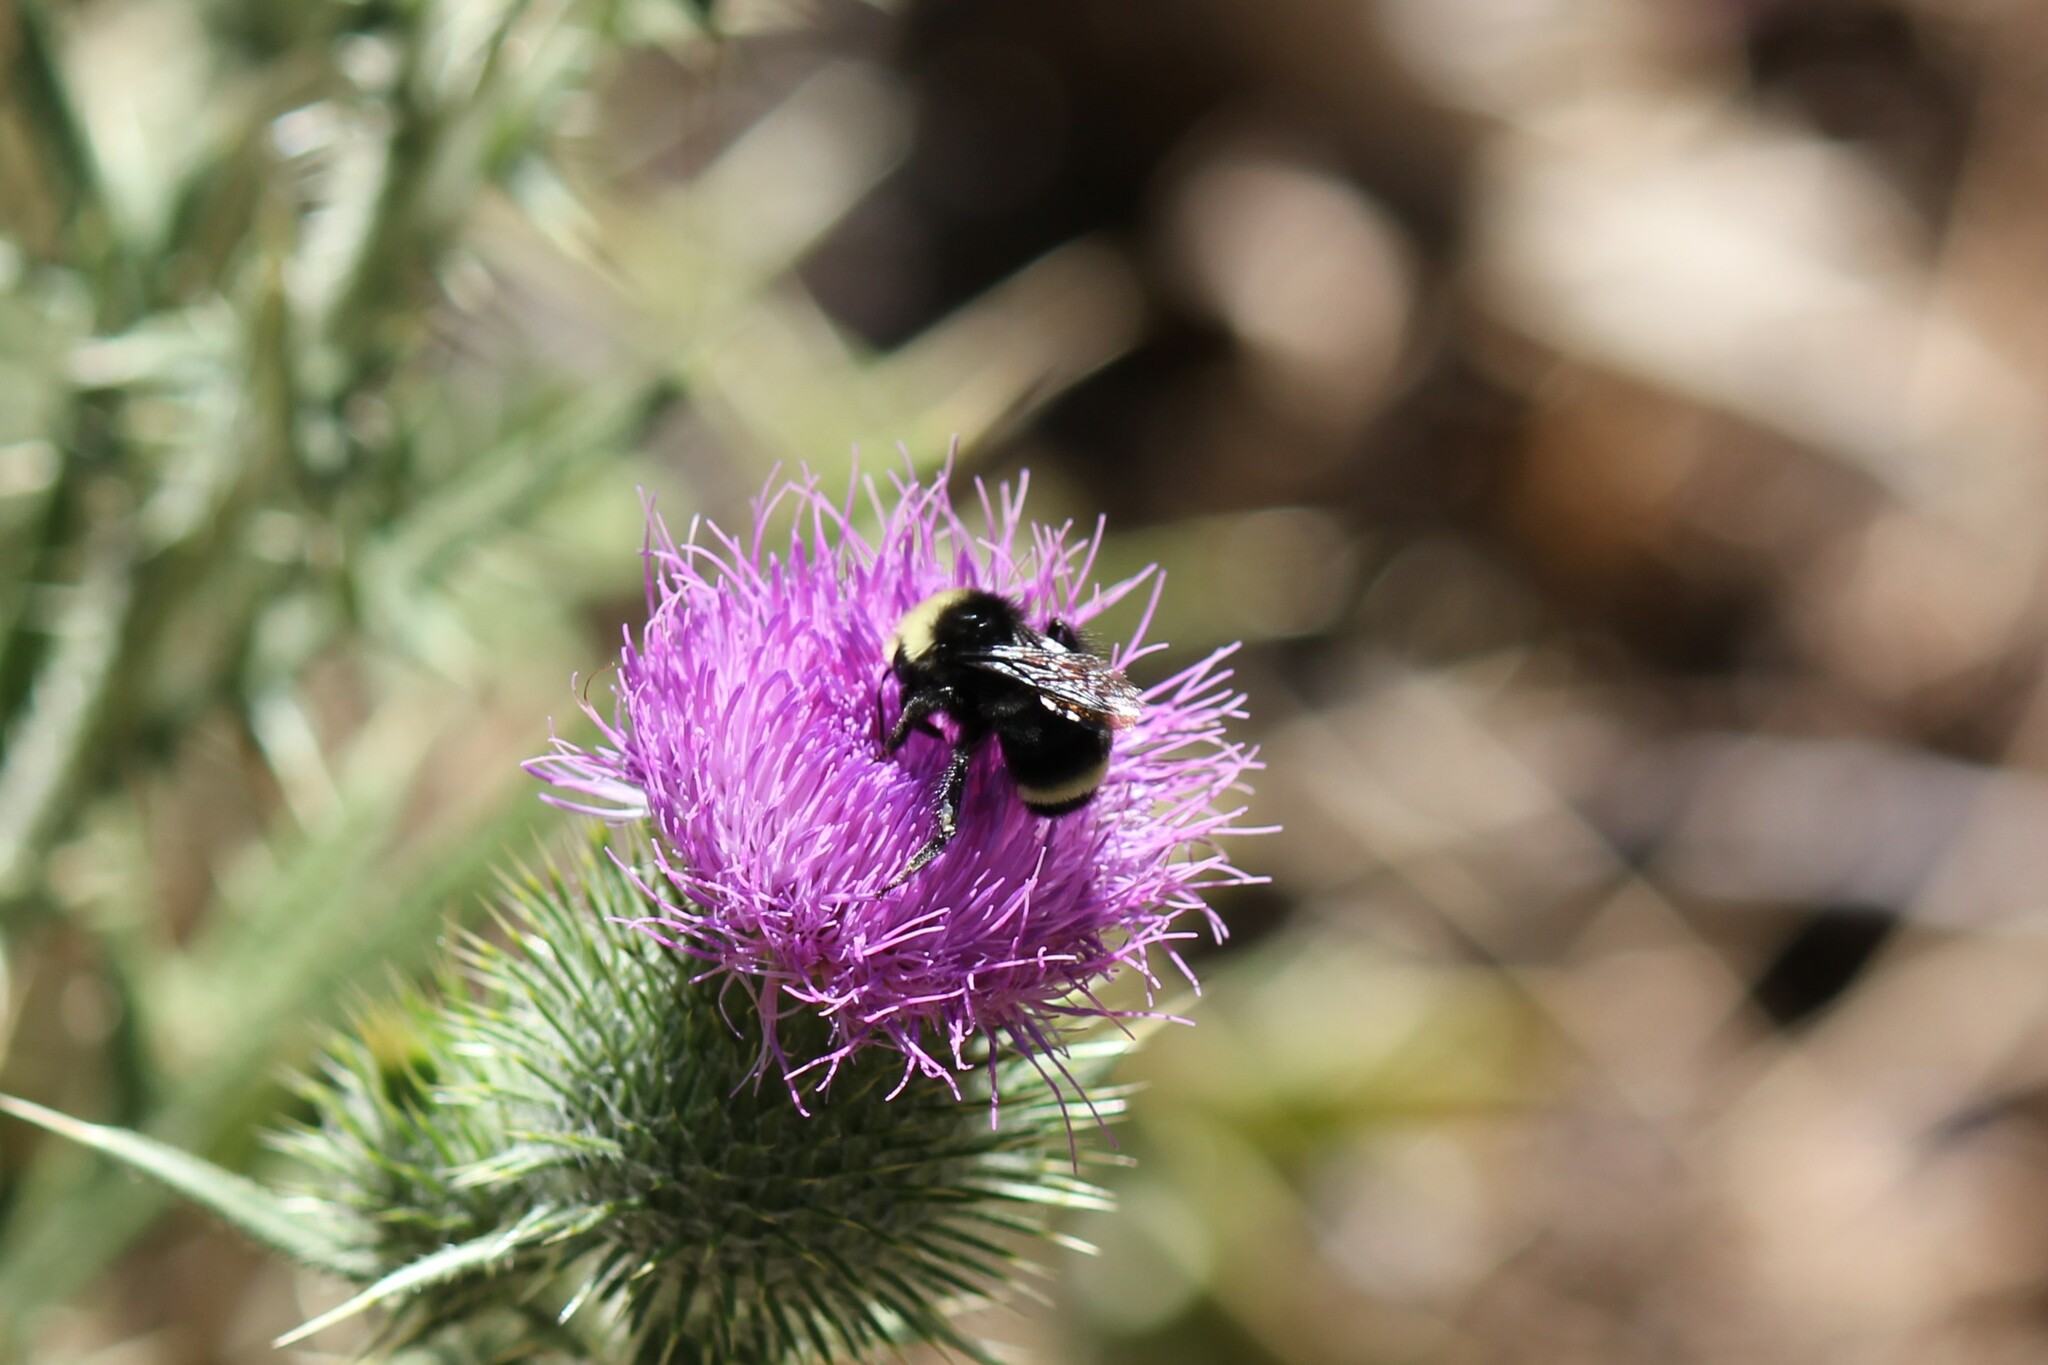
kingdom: Animalia
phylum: Arthropoda
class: Insecta
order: Hymenoptera
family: Apidae
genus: Bombus
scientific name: Bombus vosnesenskii
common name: Vosnesensky bumble bee
